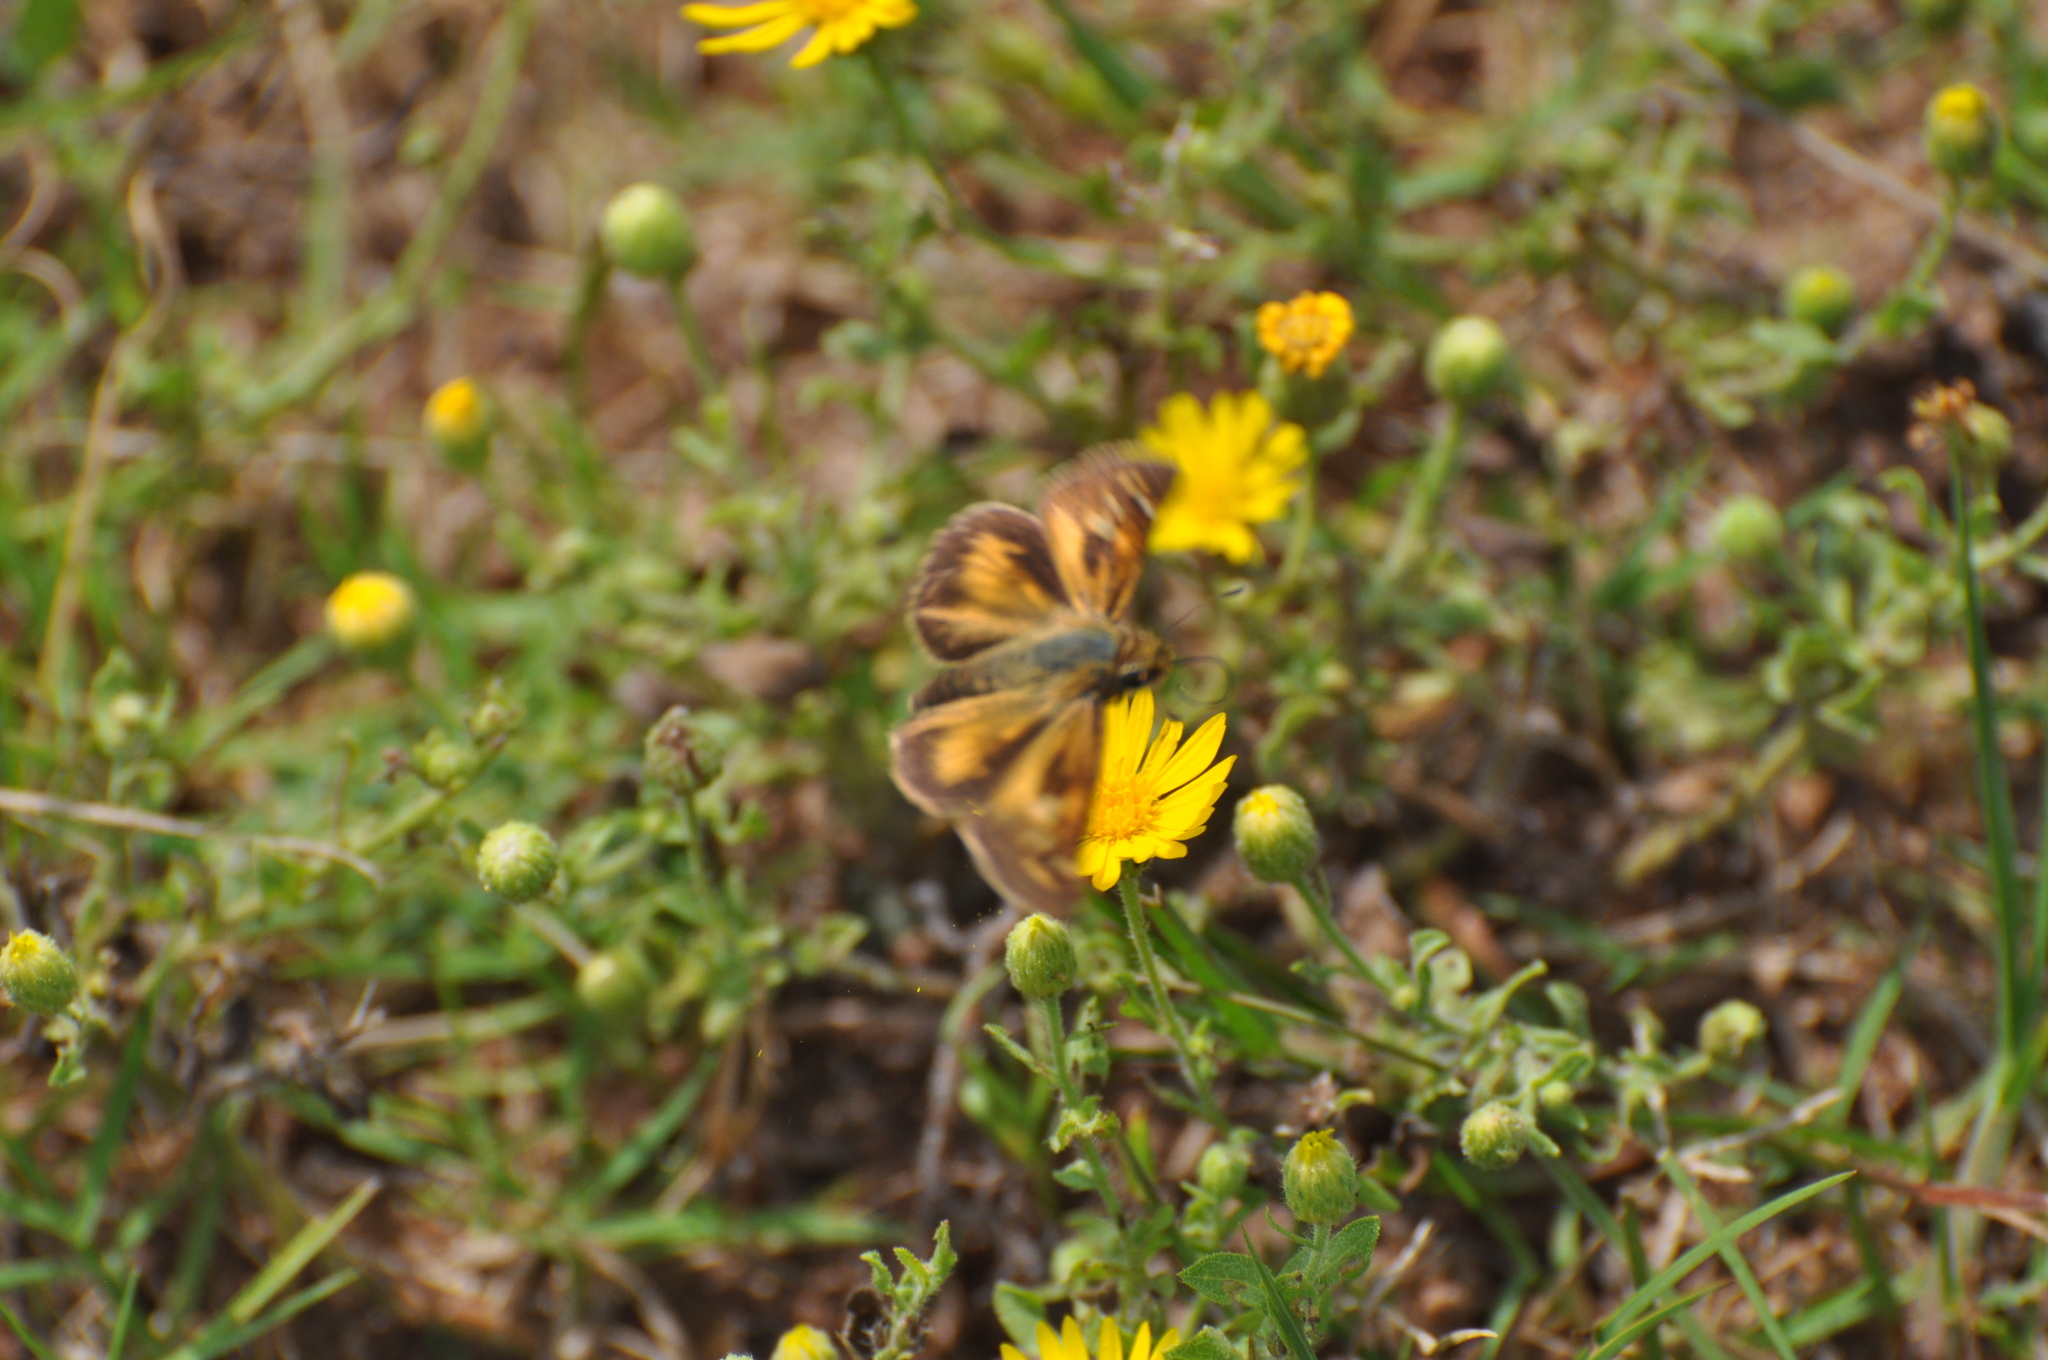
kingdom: Animalia
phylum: Arthropoda
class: Insecta
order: Lepidoptera
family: Hesperiidae
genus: Atalopedes
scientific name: Atalopedes
